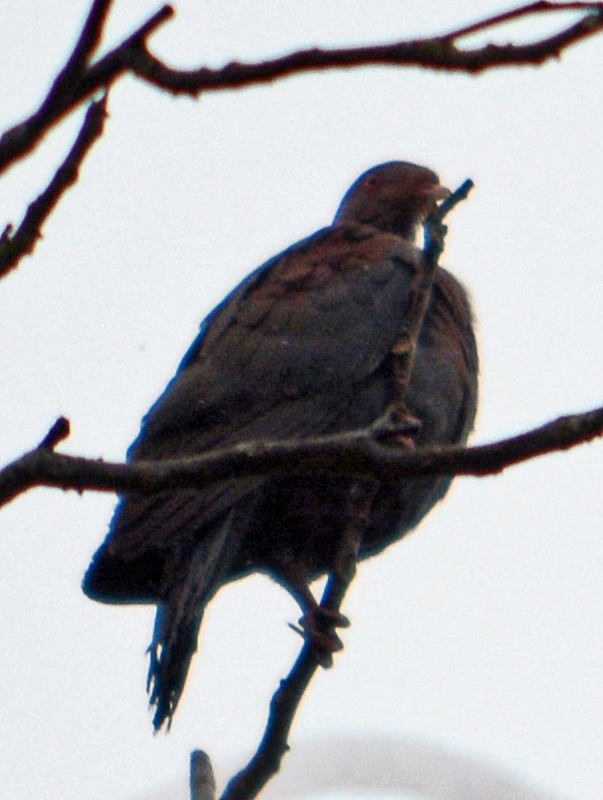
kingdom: Animalia
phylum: Chordata
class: Aves
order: Columbiformes
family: Columbidae
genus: Patagioenas
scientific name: Patagioenas flavirostris
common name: Red-billed pigeon
